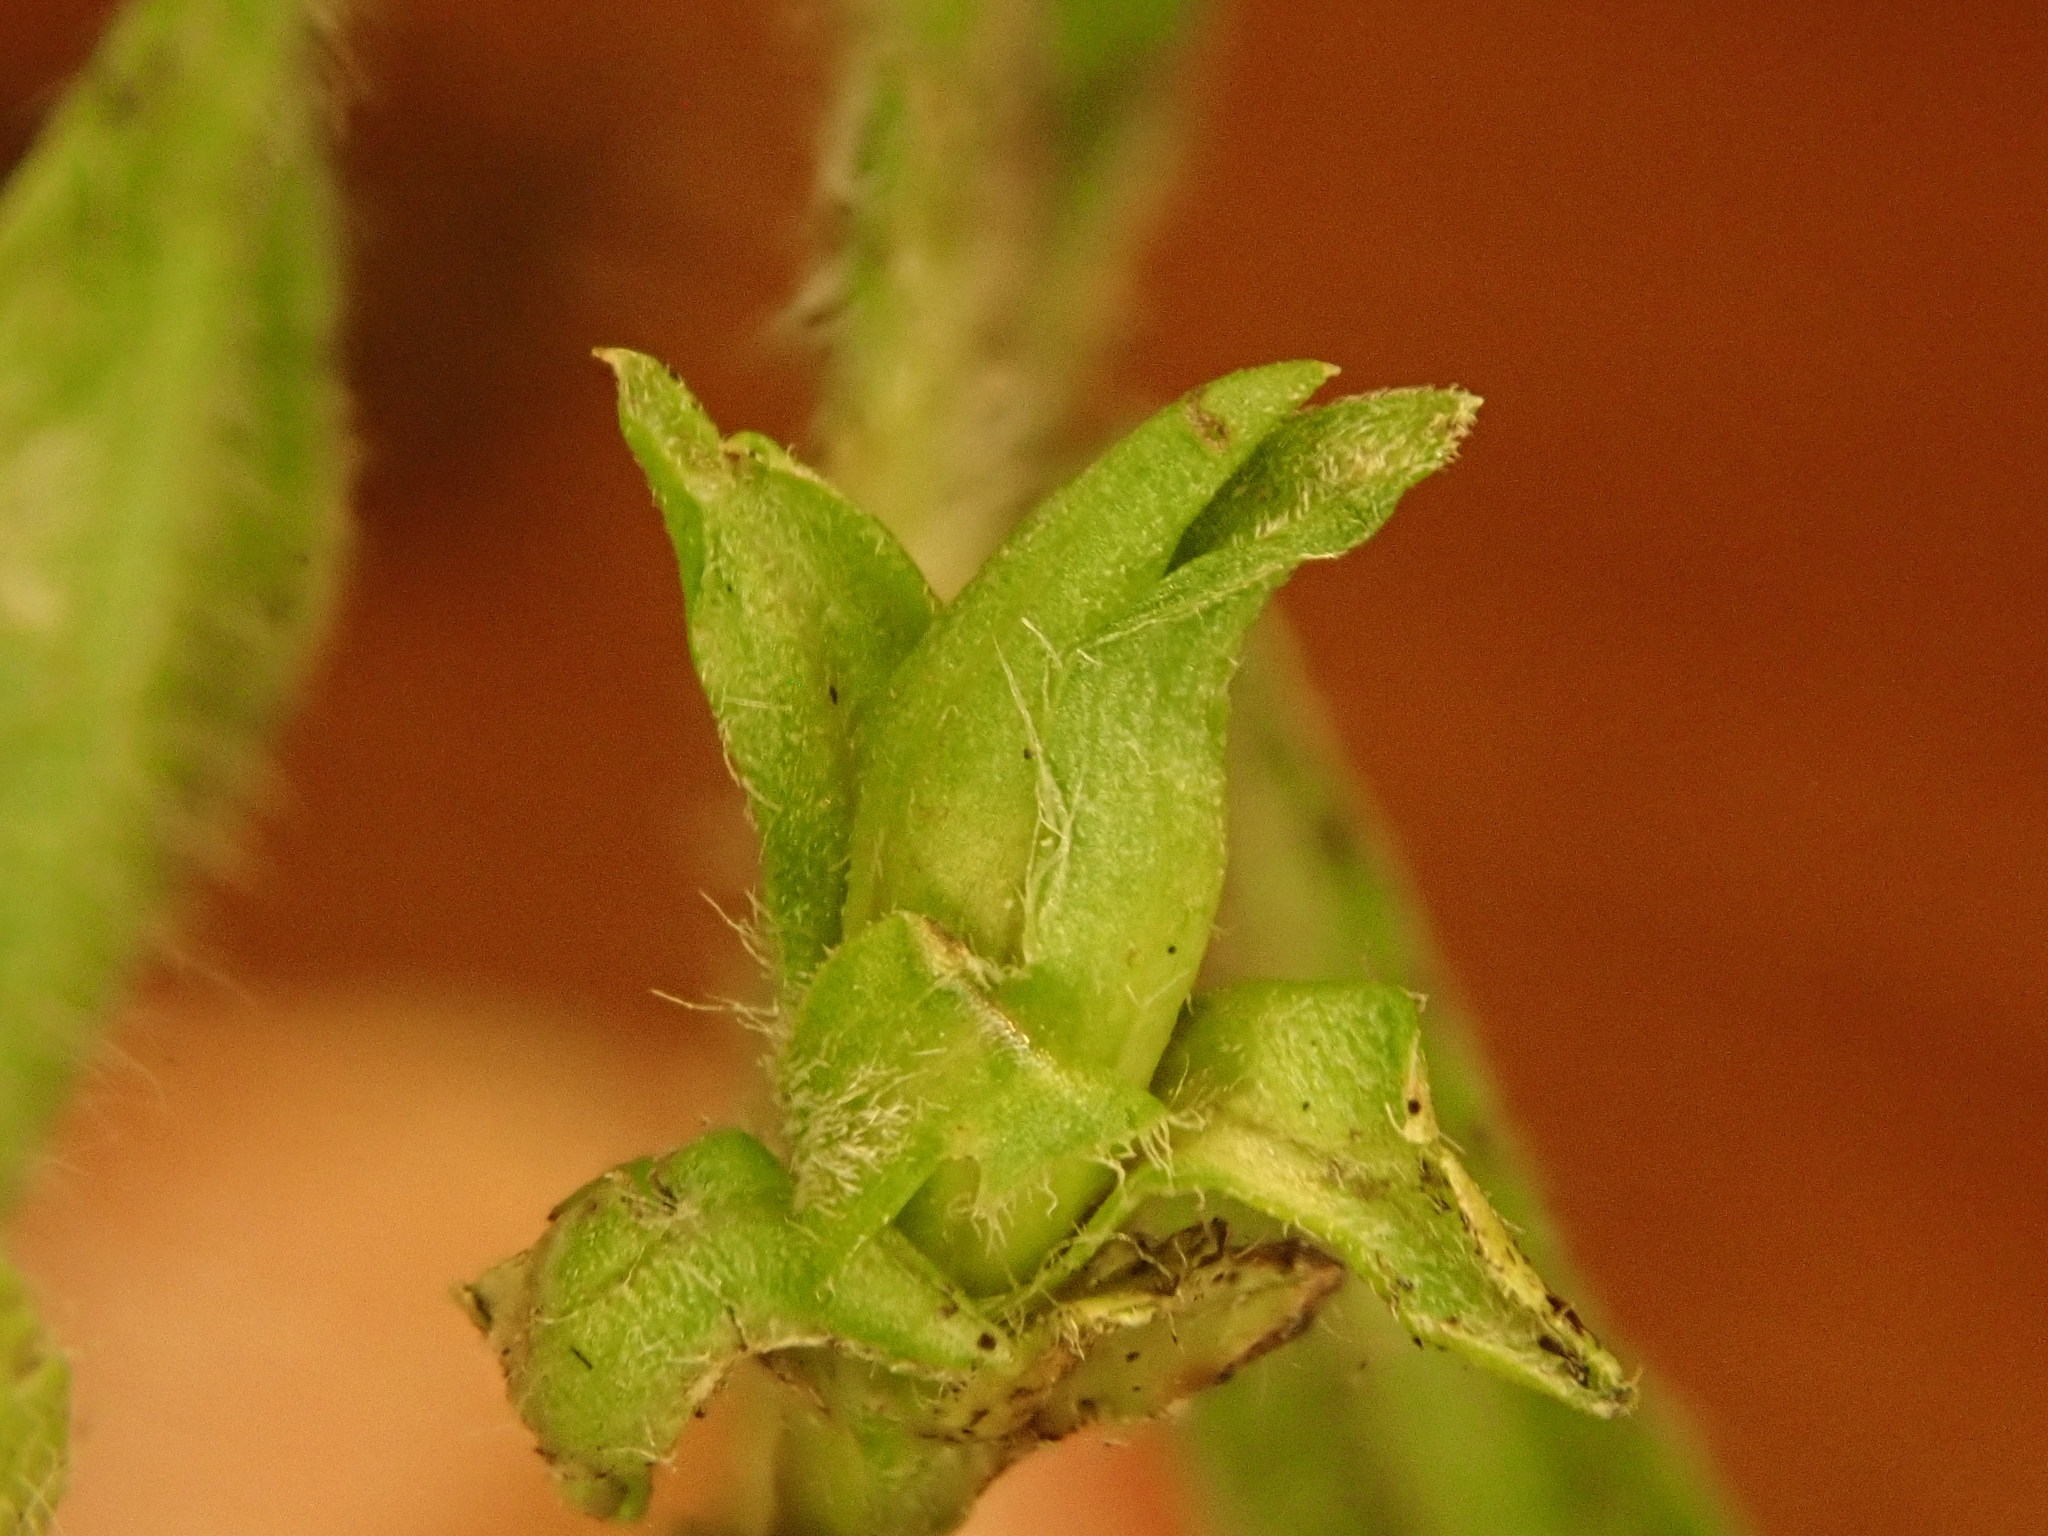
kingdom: Animalia
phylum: Arthropoda
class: Insecta
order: Diptera
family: Cecidomyiidae
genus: Asphondylia
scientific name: Asphondylia imbricata
